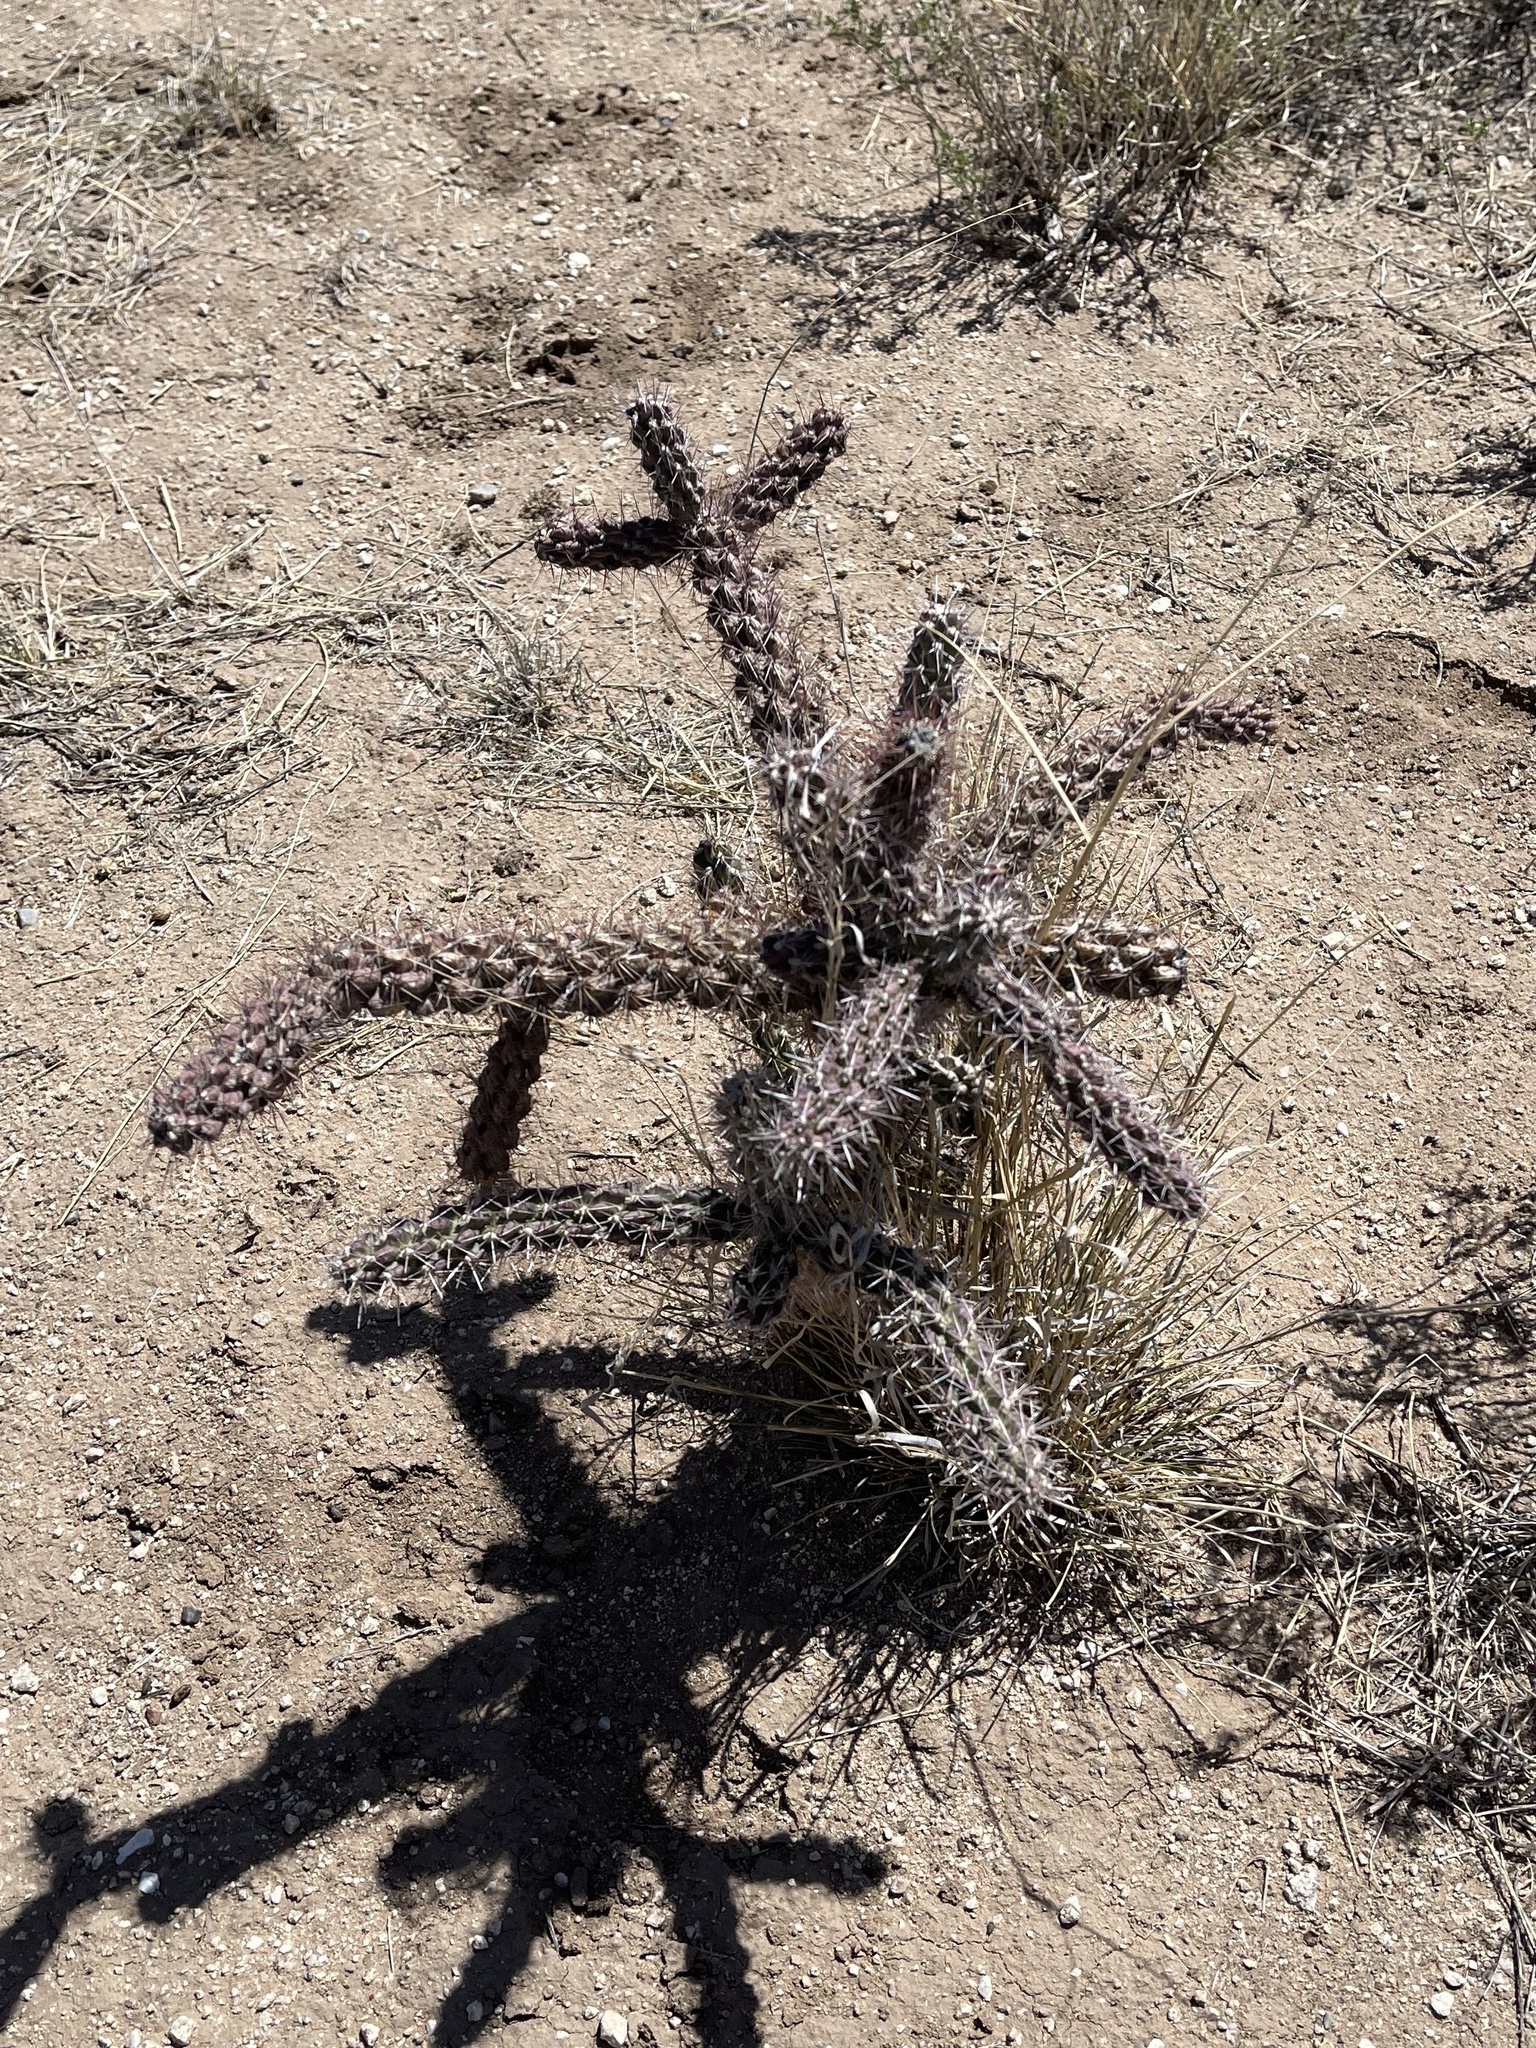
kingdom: Plantae
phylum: Tracheophyta
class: Magnoliopsida
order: Caryophyllales
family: Cactaceae
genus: Cylindropuntia
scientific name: Cylindropuntia imbricata
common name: Candelabrum cactus
